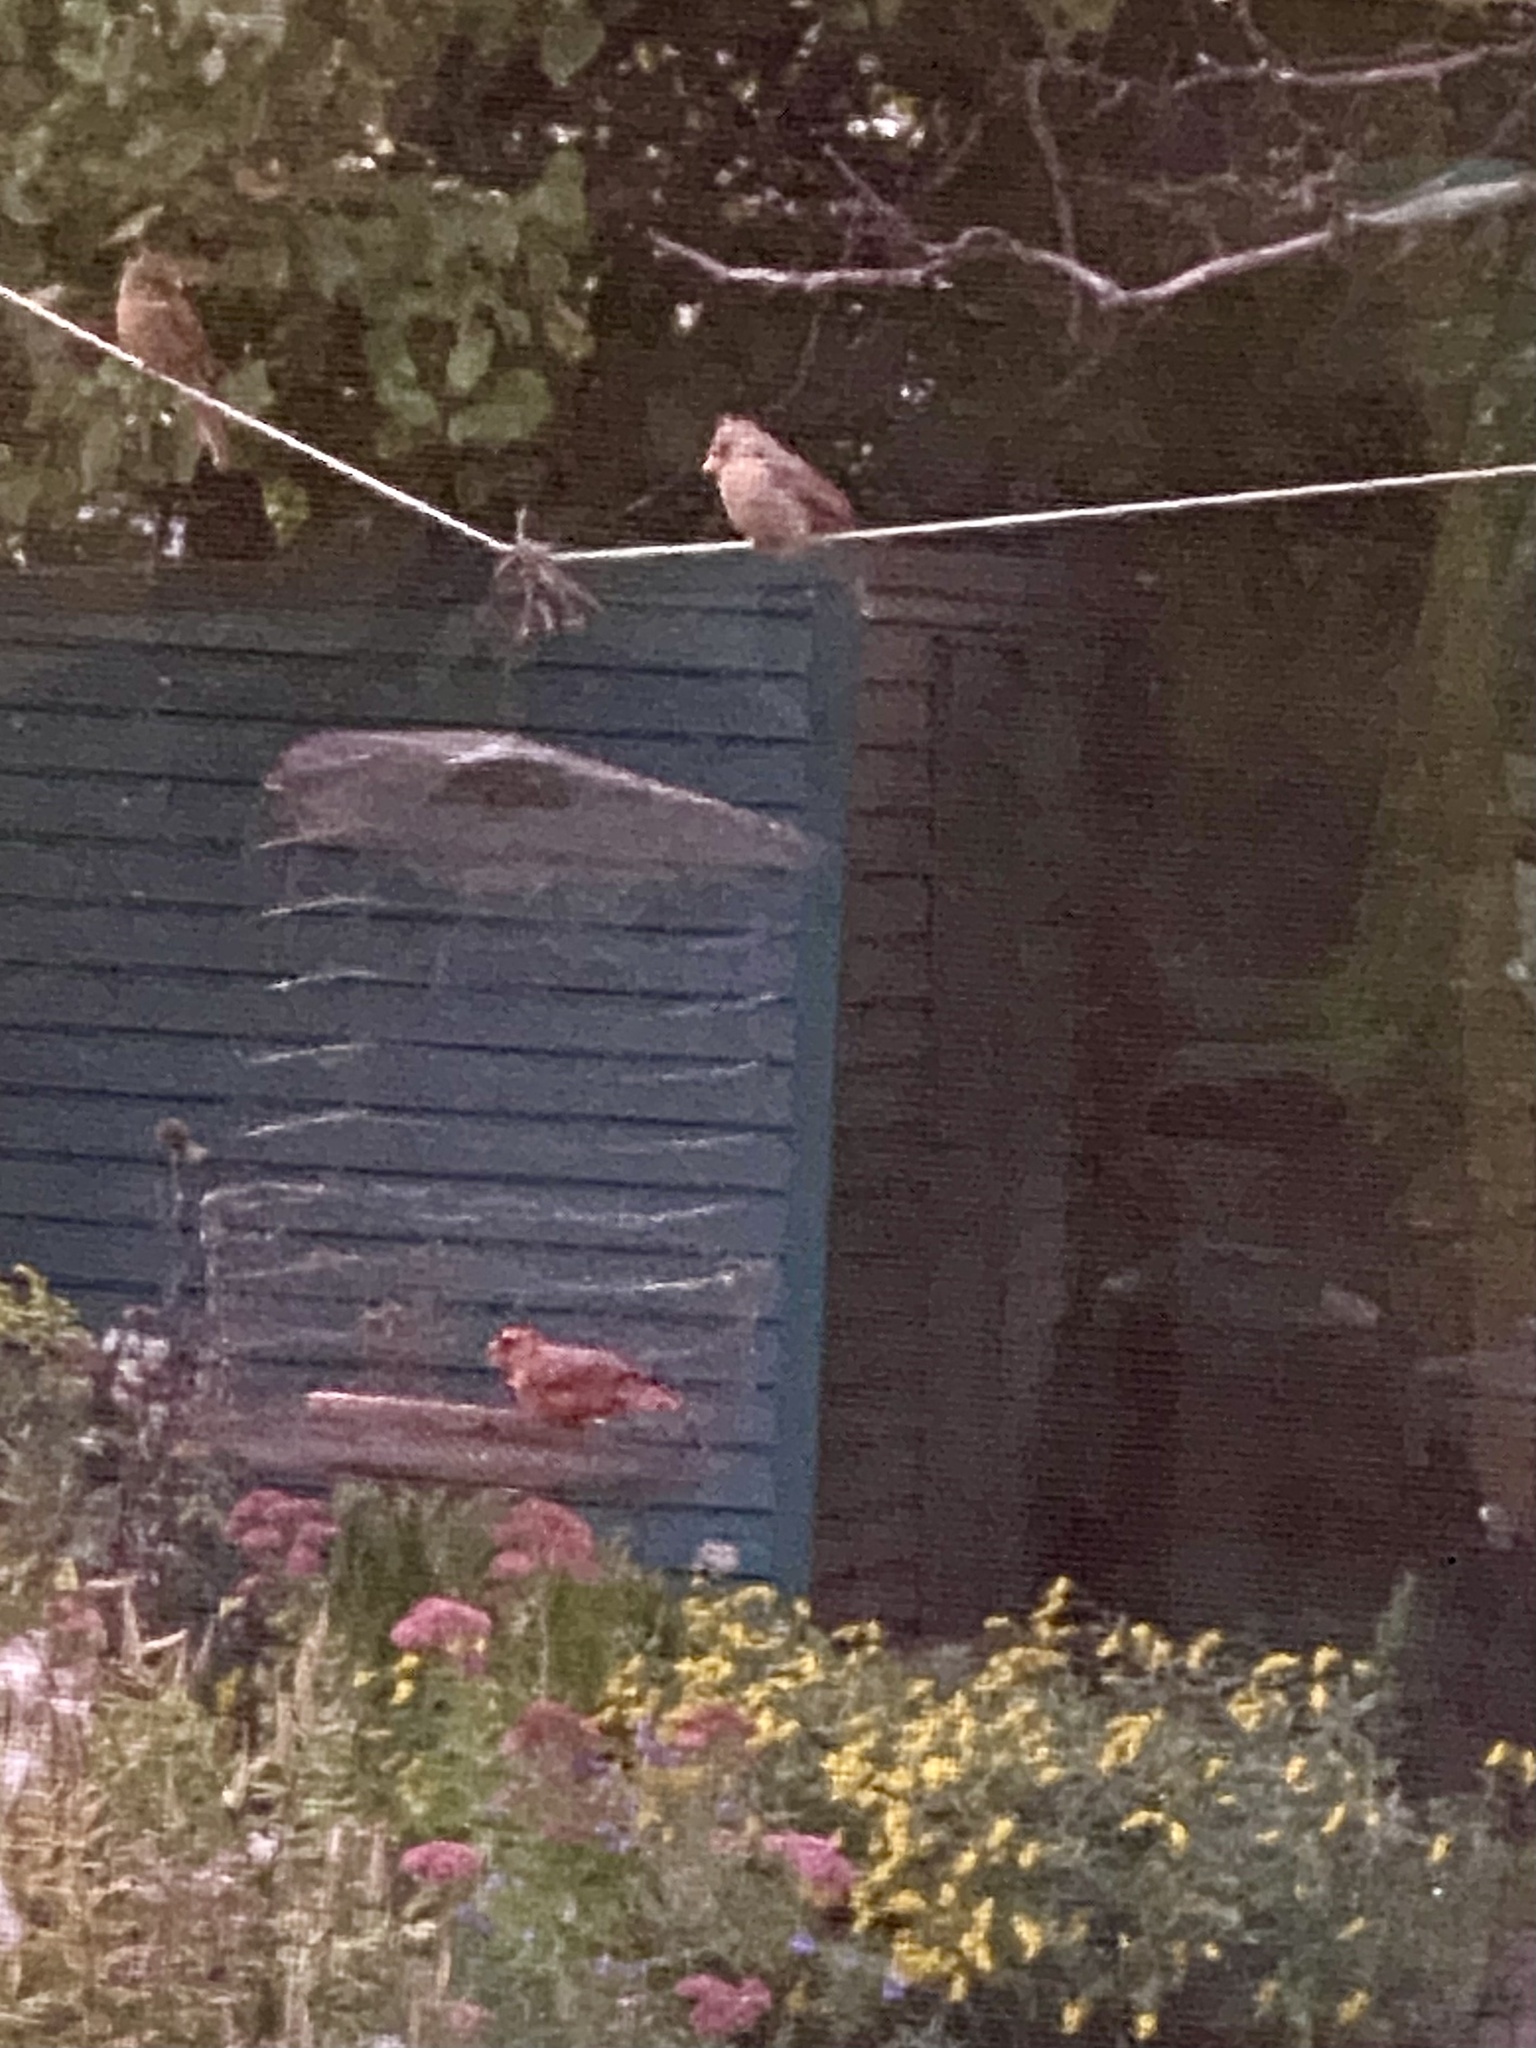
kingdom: Animalia
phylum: Chordata
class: Aves
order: Passeriformes
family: Cardinalidae
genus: Cardinalis
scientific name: Cardinalis cardinalis
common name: Northern cardinal
